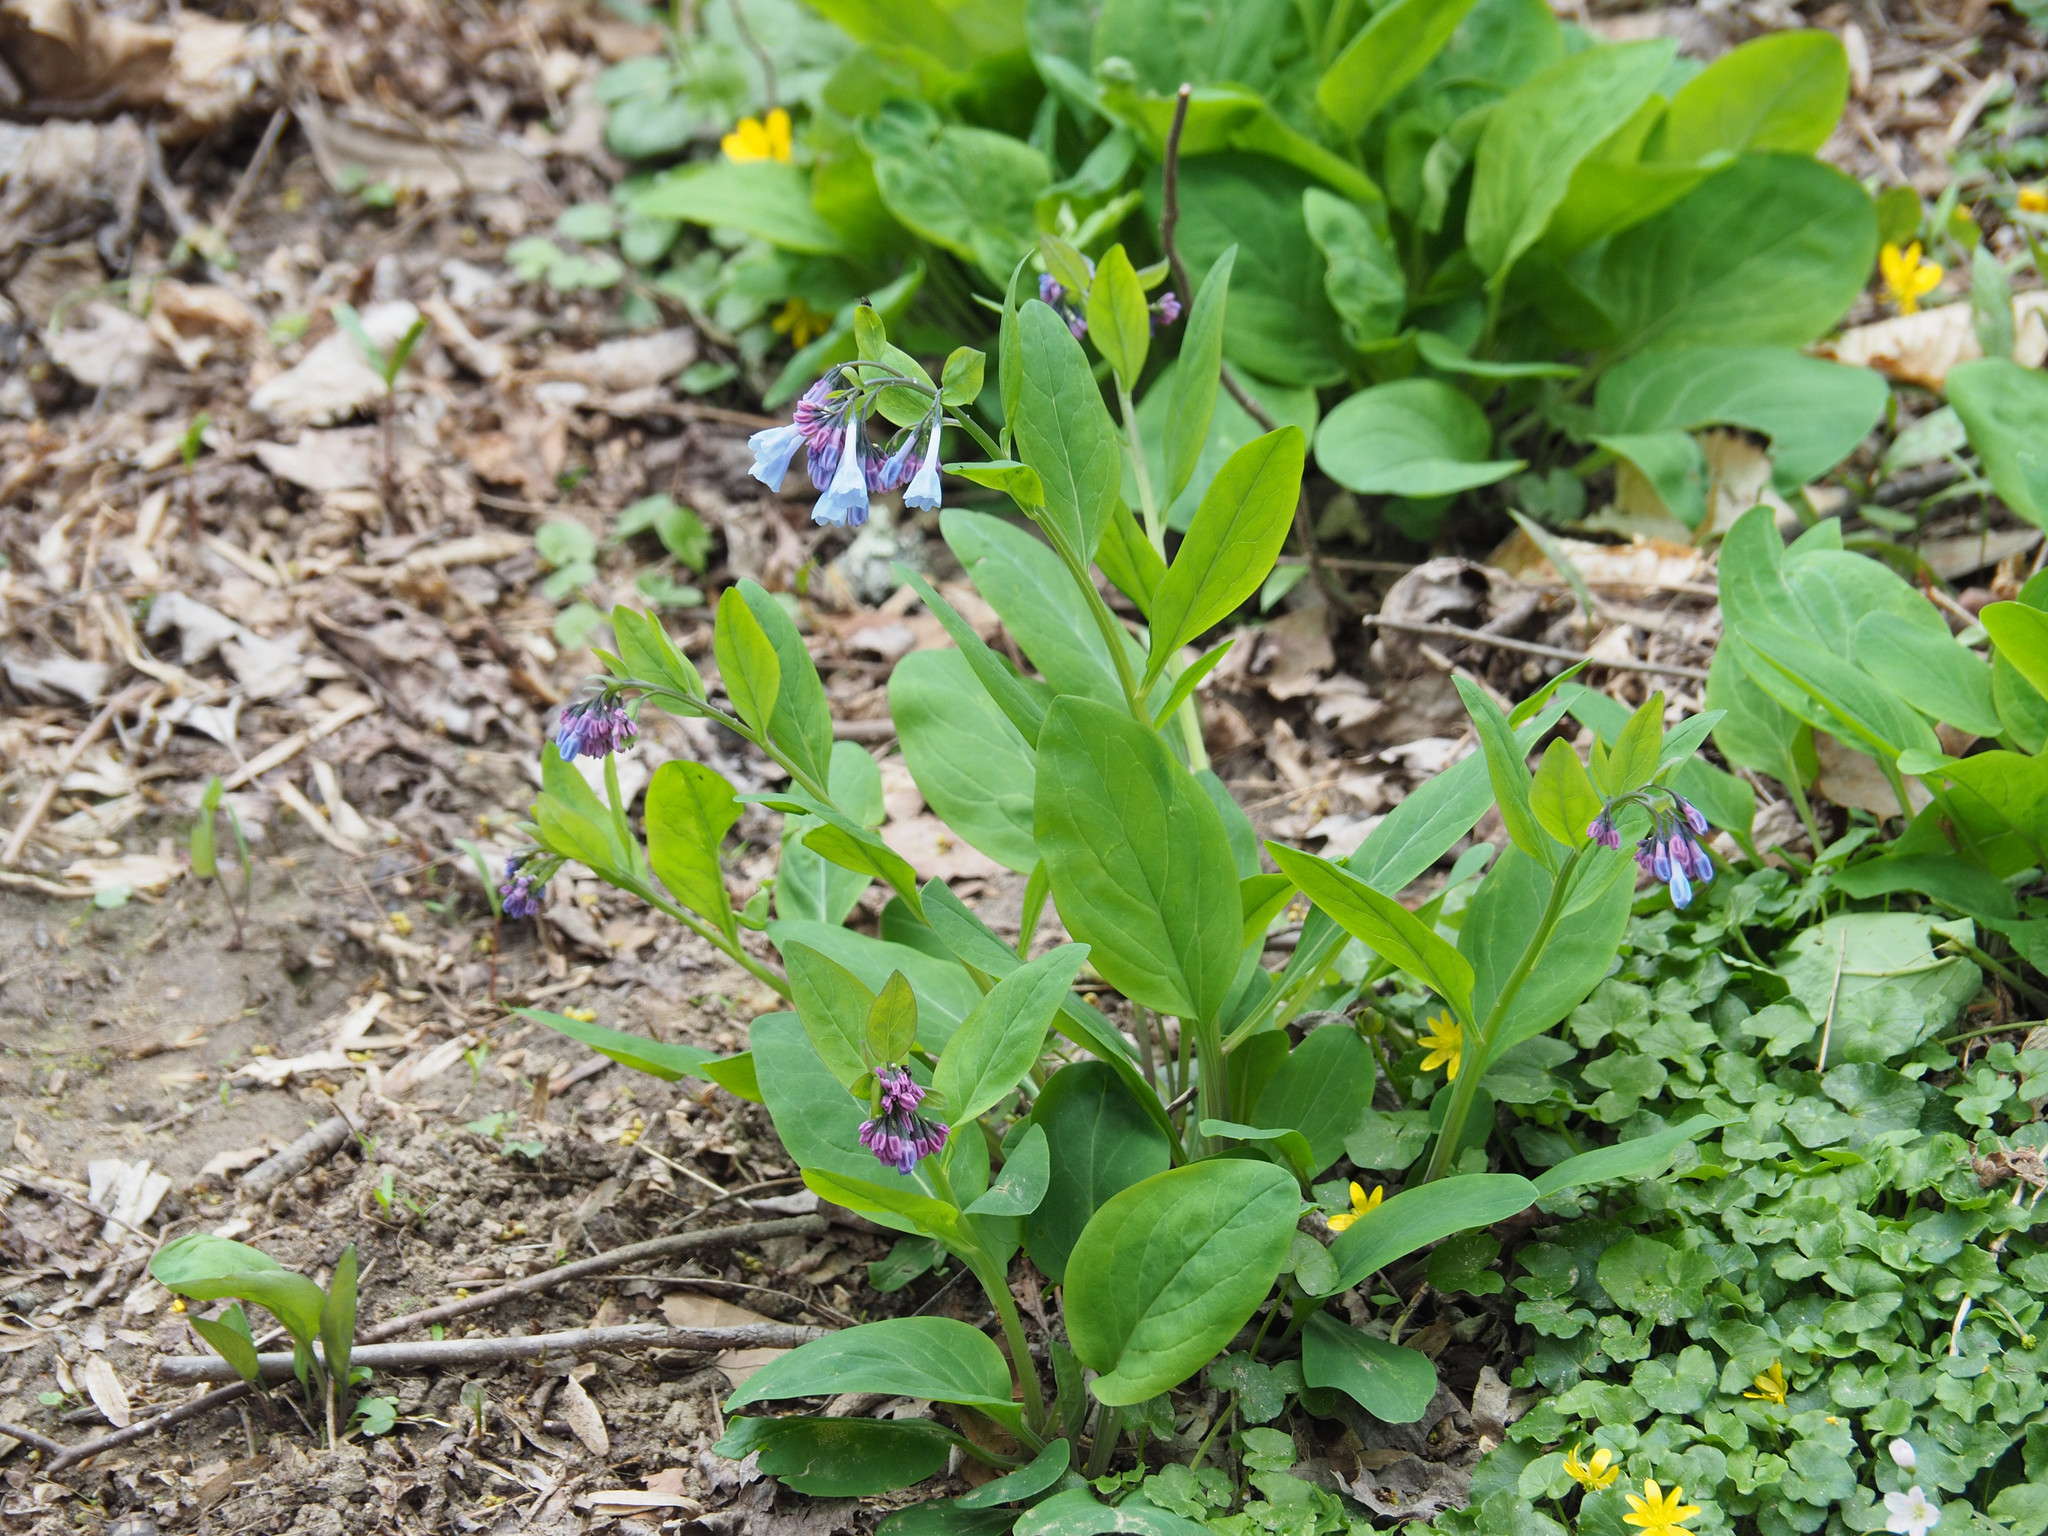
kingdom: Plantae
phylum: Tracheophyta
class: Magnoliopsida
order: Boraginales
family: Boraginaceae
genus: Mertensia
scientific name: Mertensia virginica
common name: Virginia bluebells
